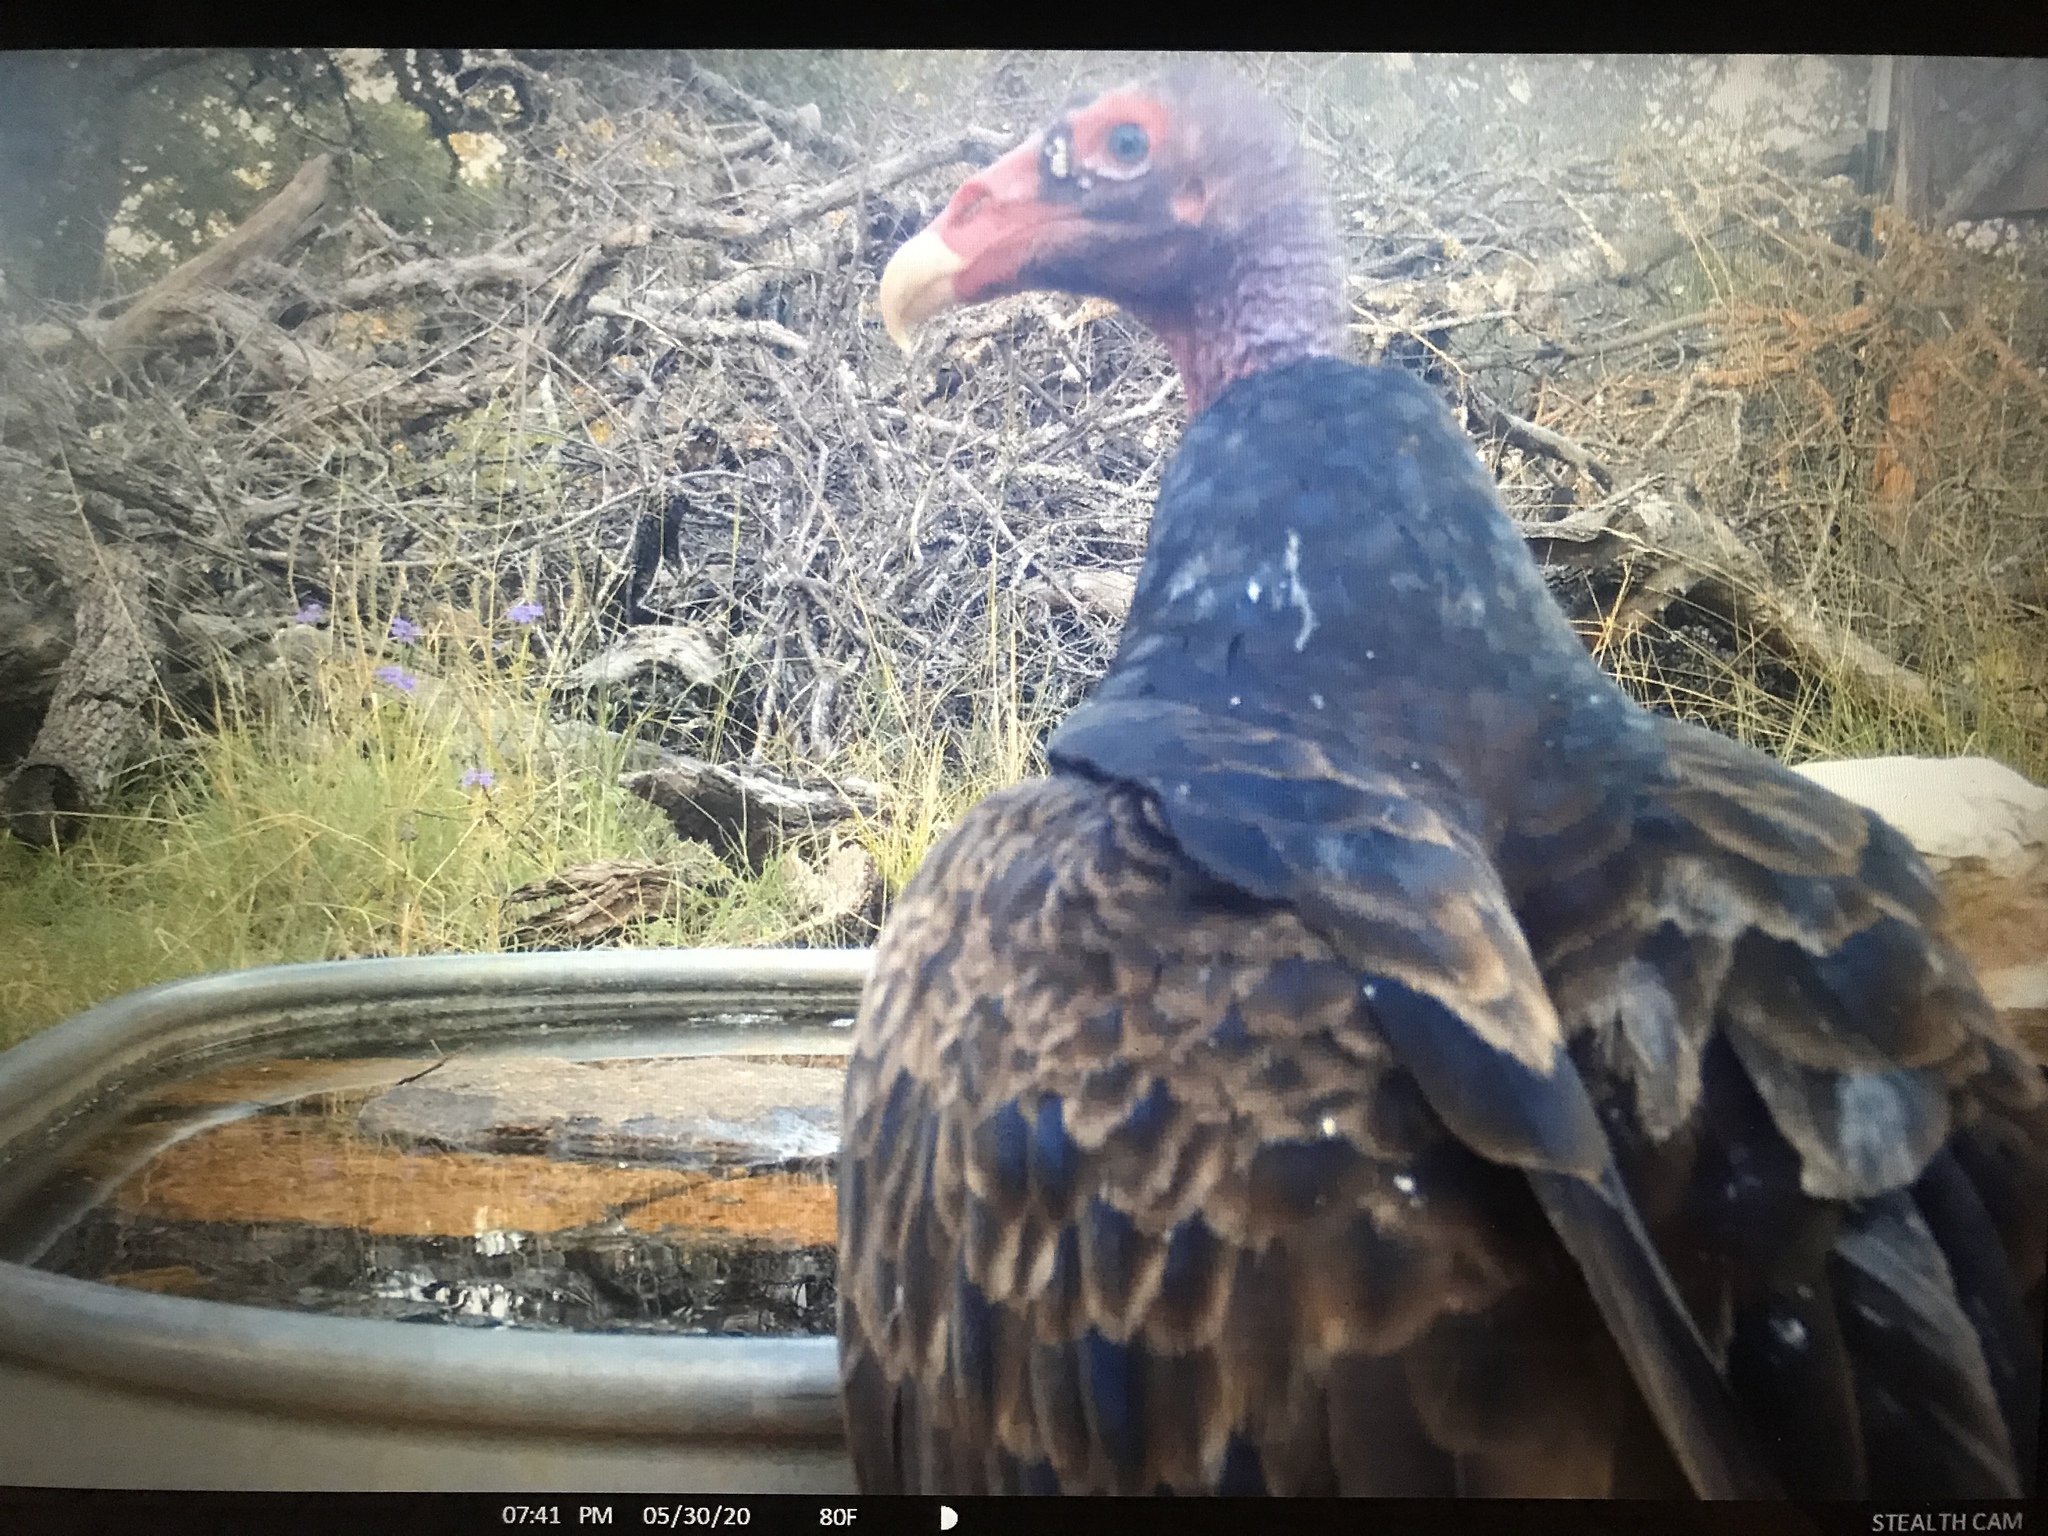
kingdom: Animalia
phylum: Chordata
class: Aves
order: Accipitriformes
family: Cathartidae
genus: Cathartes
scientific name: Cathartes aura
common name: Turkey vulture
